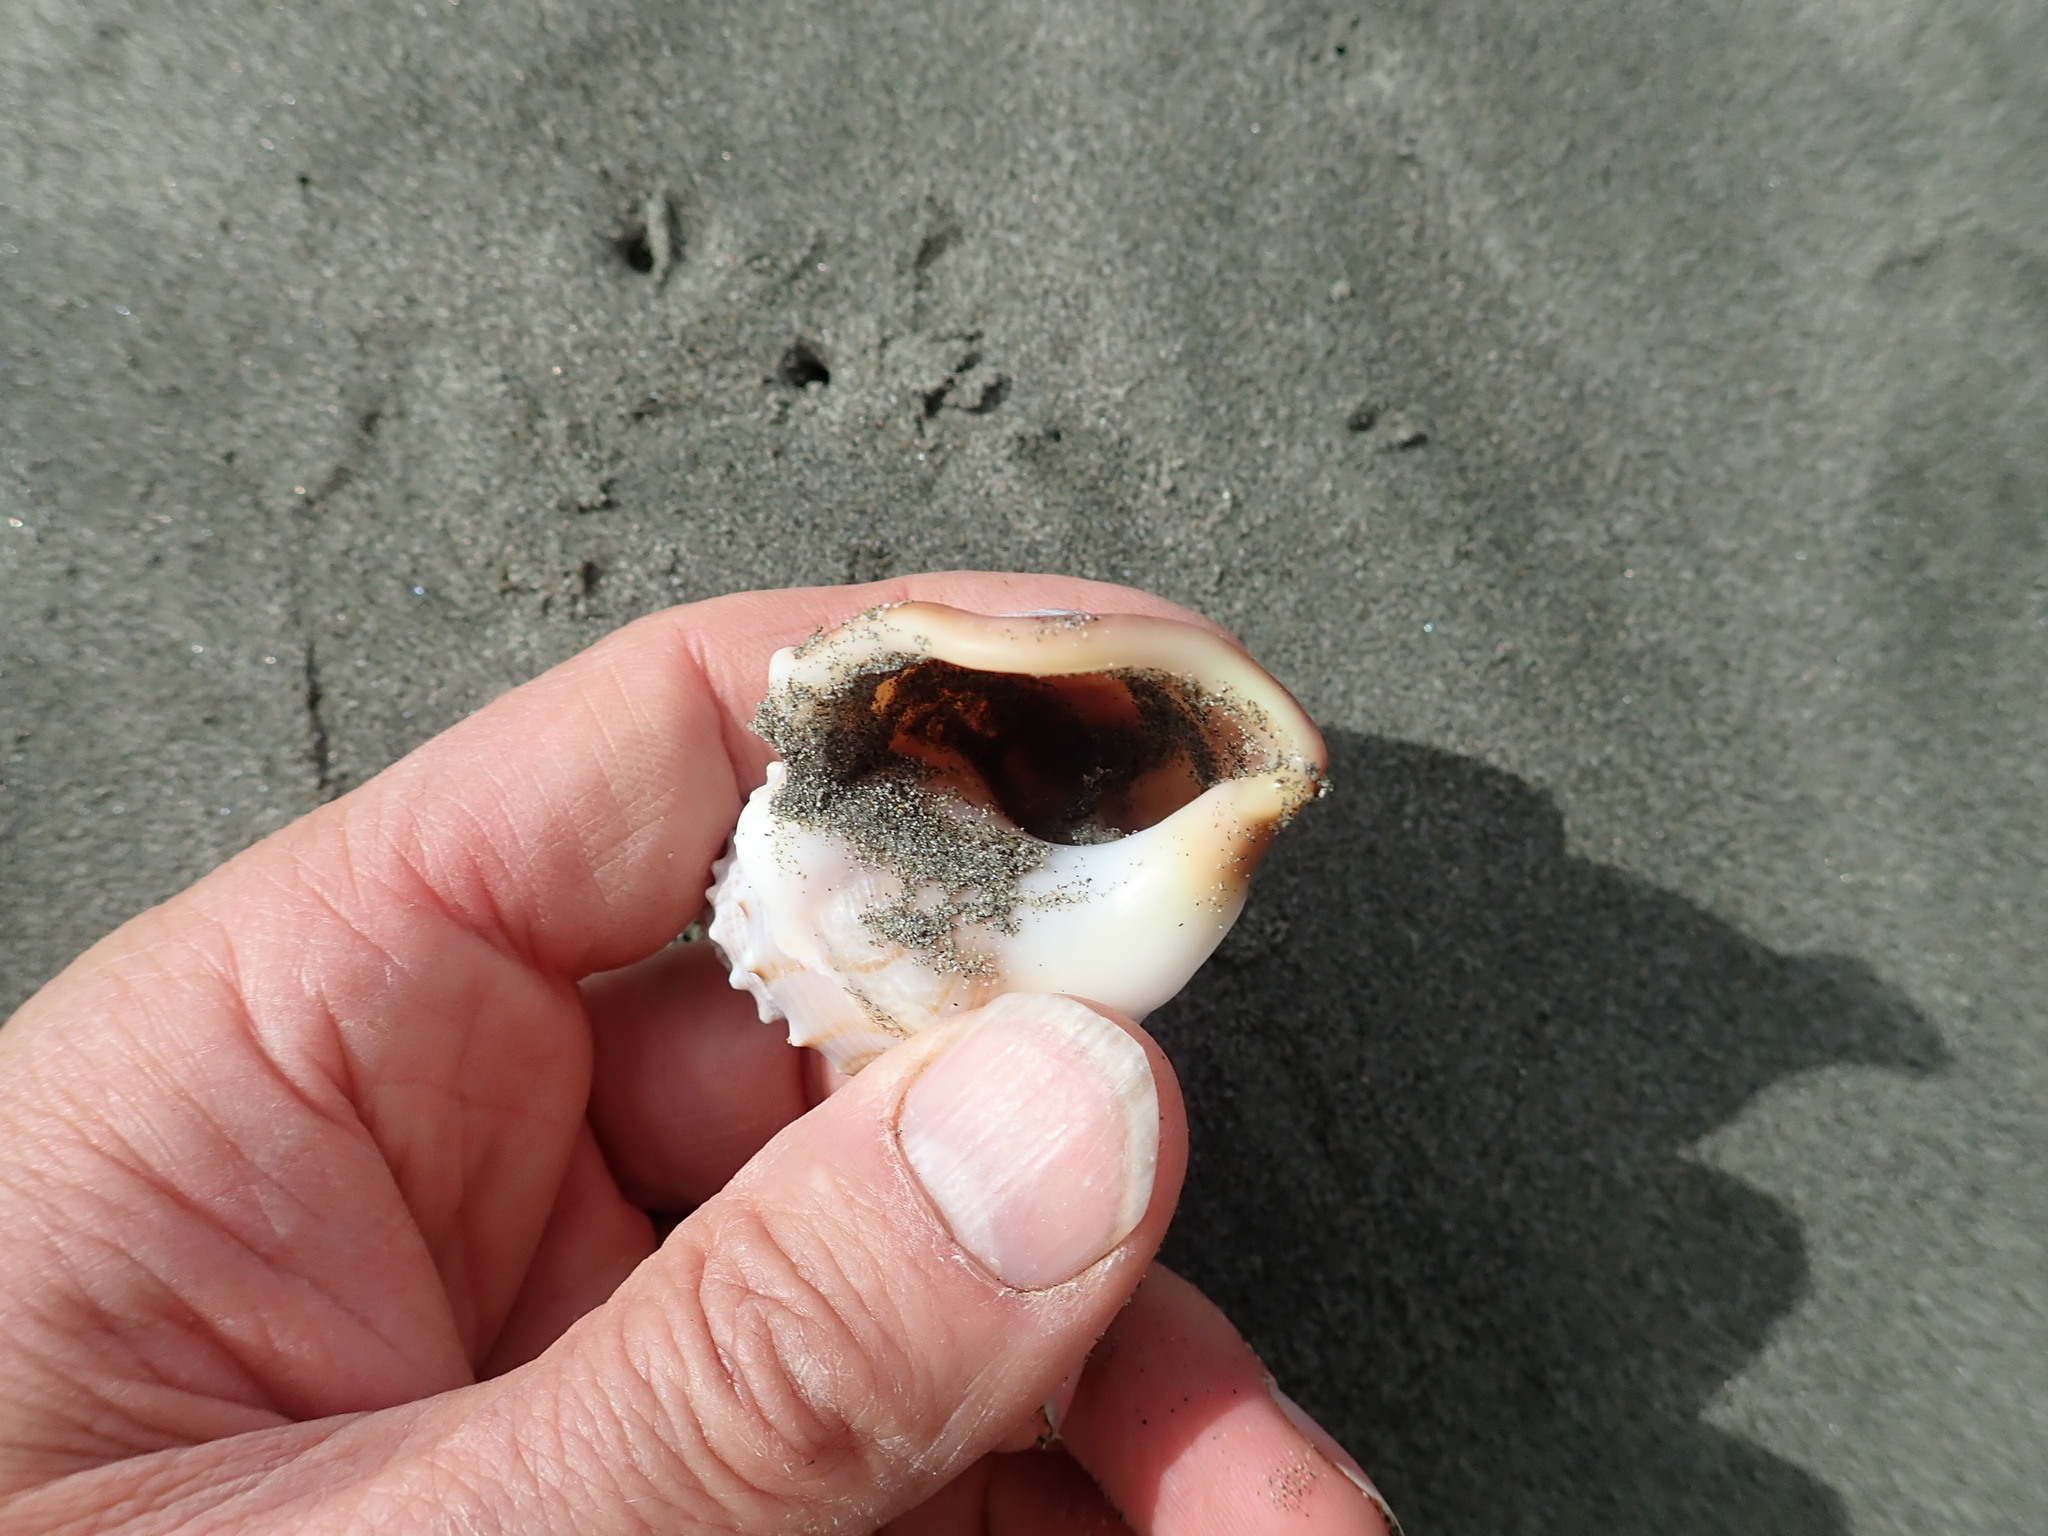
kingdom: Animalia
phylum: Mollusca
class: Gastropoda
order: Littorinimorpha
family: Struthiolariidae
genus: Struthiolaria
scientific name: Struthiolaria papulosa
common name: Large ostrich foot
